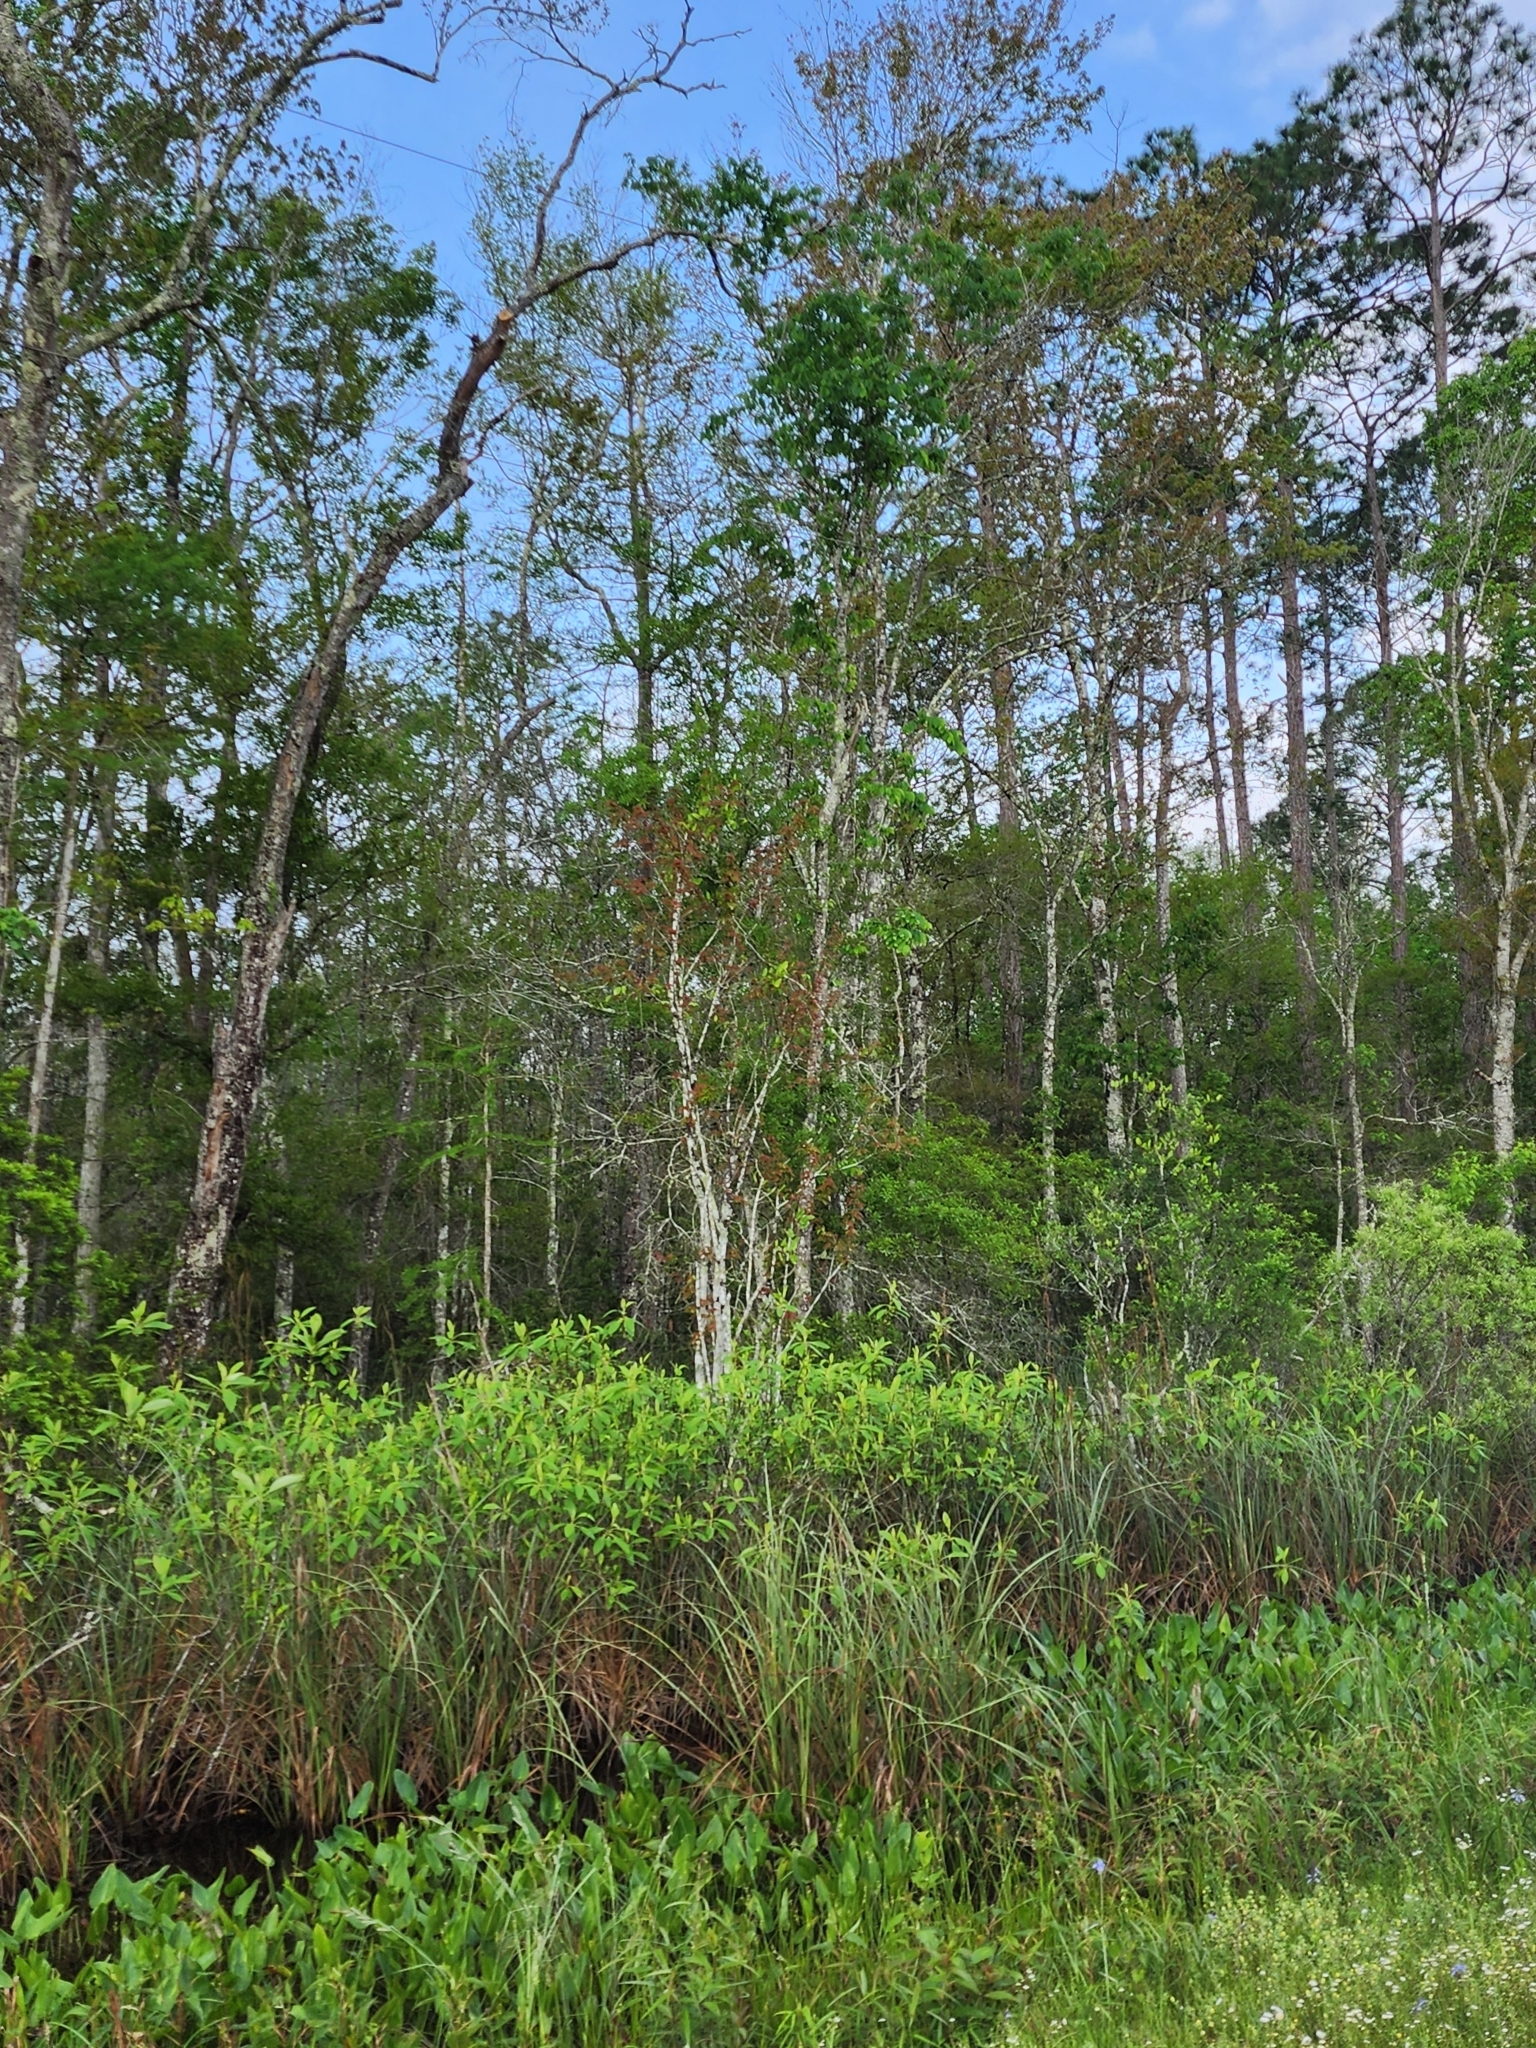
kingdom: Plantae
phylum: Tracheophyta
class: Magnoliopsida
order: Sapindales
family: Simaroubaceae
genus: Leitneria
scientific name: Leitneria floridana
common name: Corkwood
